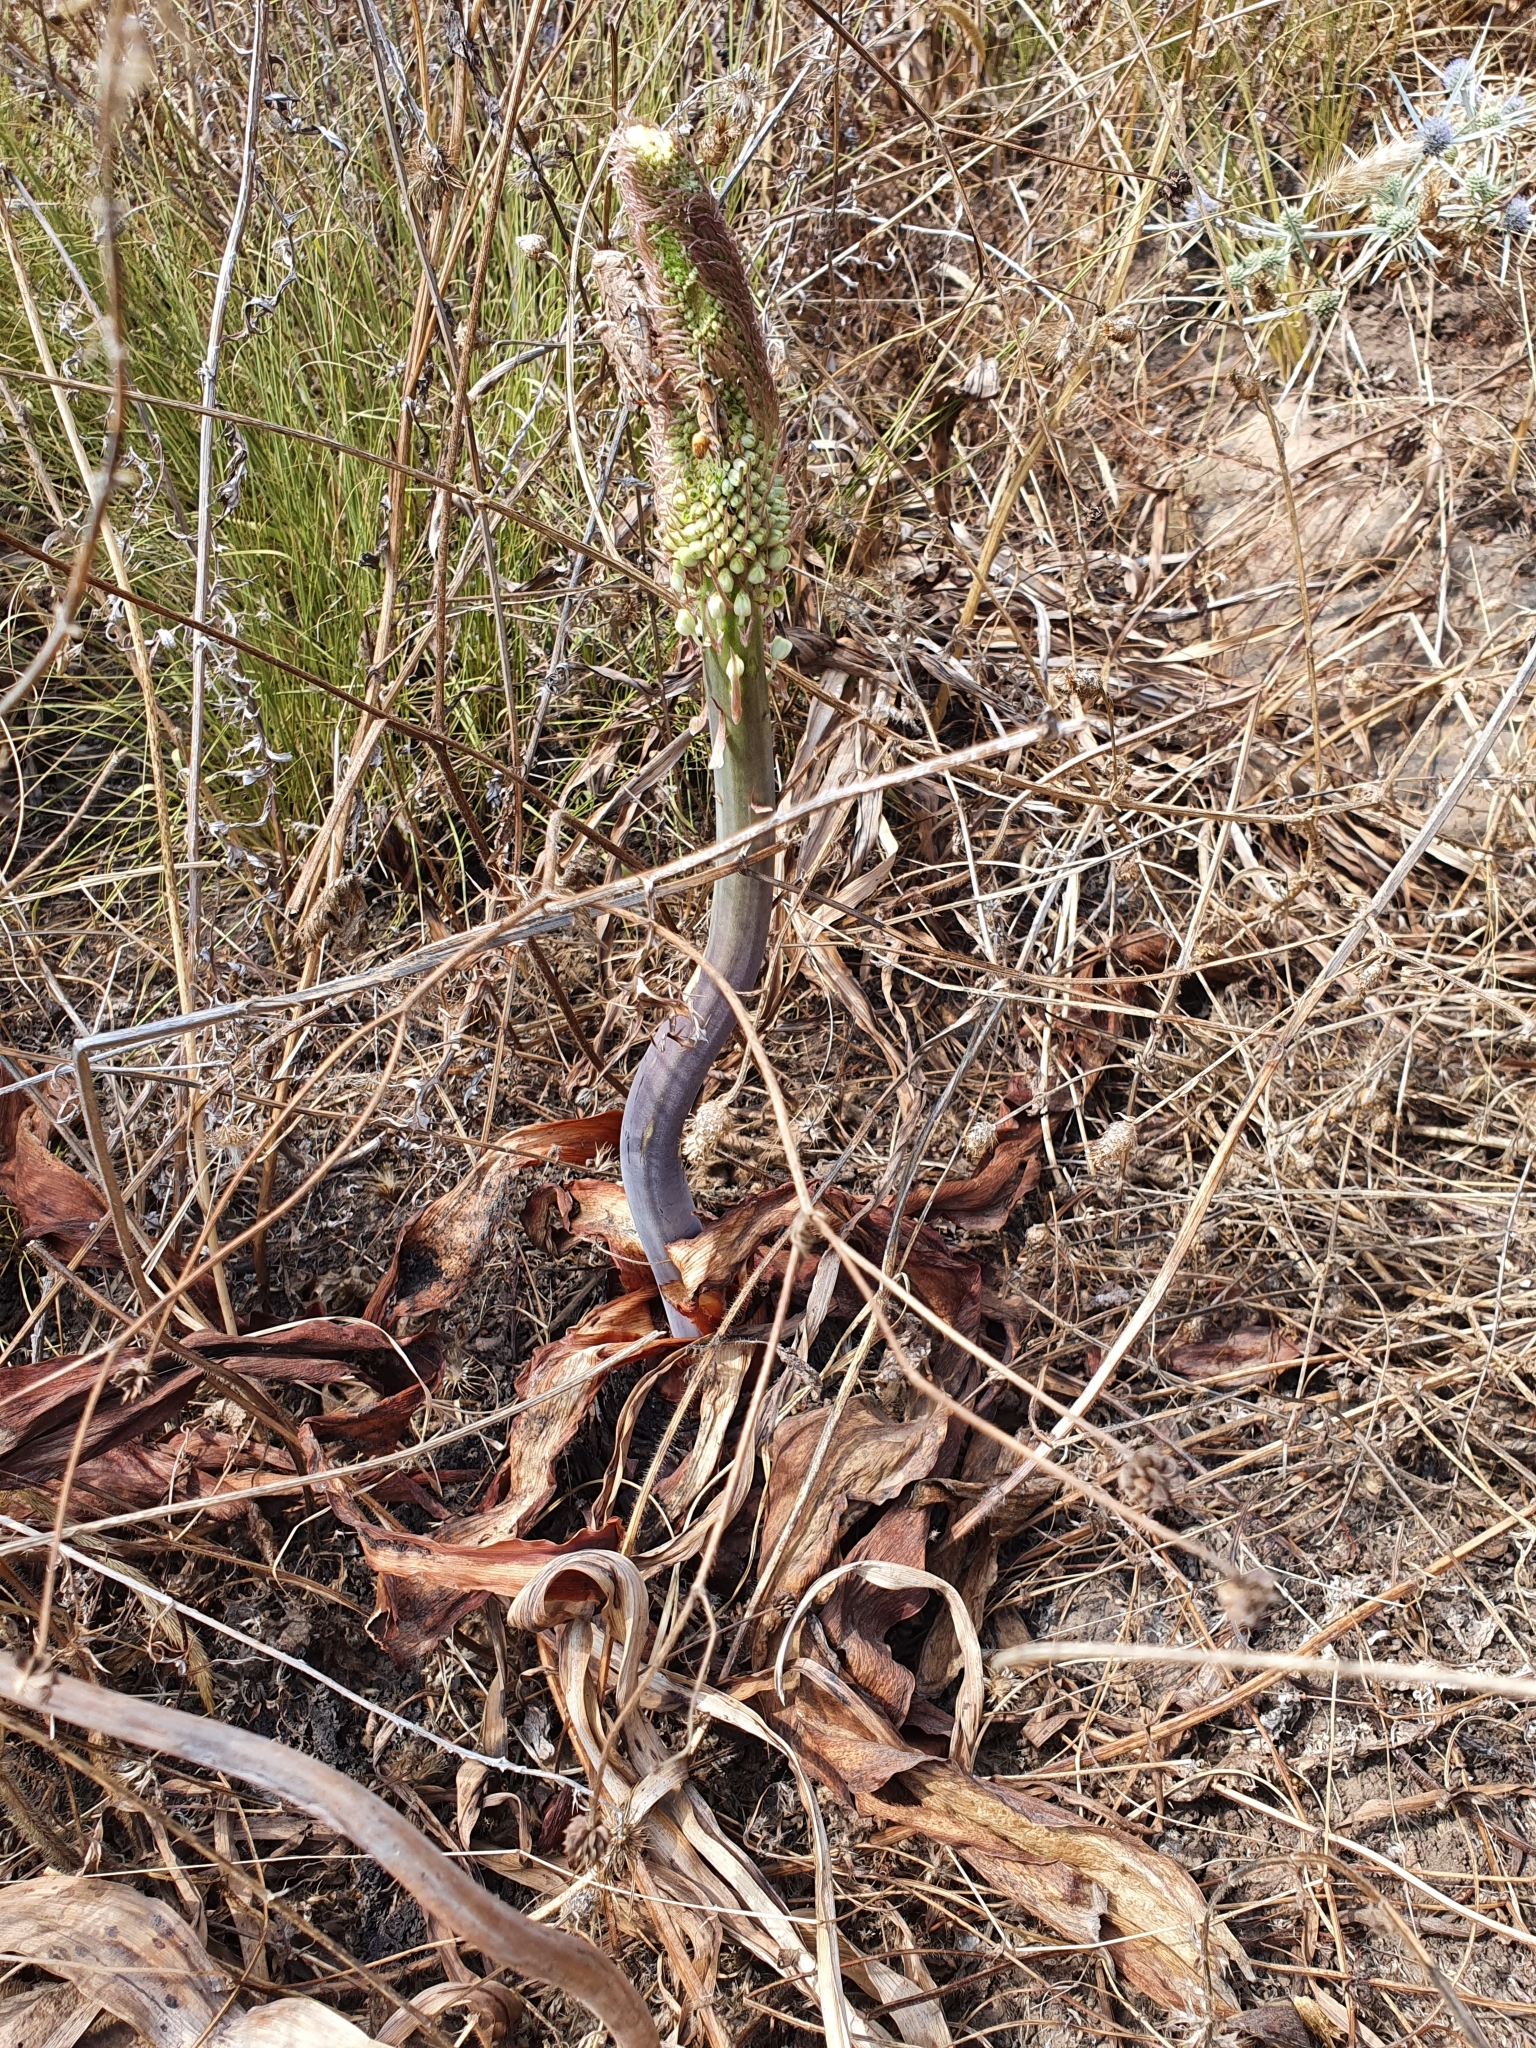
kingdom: Plantae
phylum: Tracheophyta
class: Liliopsida
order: Asparagales
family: Asparagaceae
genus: Drimia
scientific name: Drimia numidica
